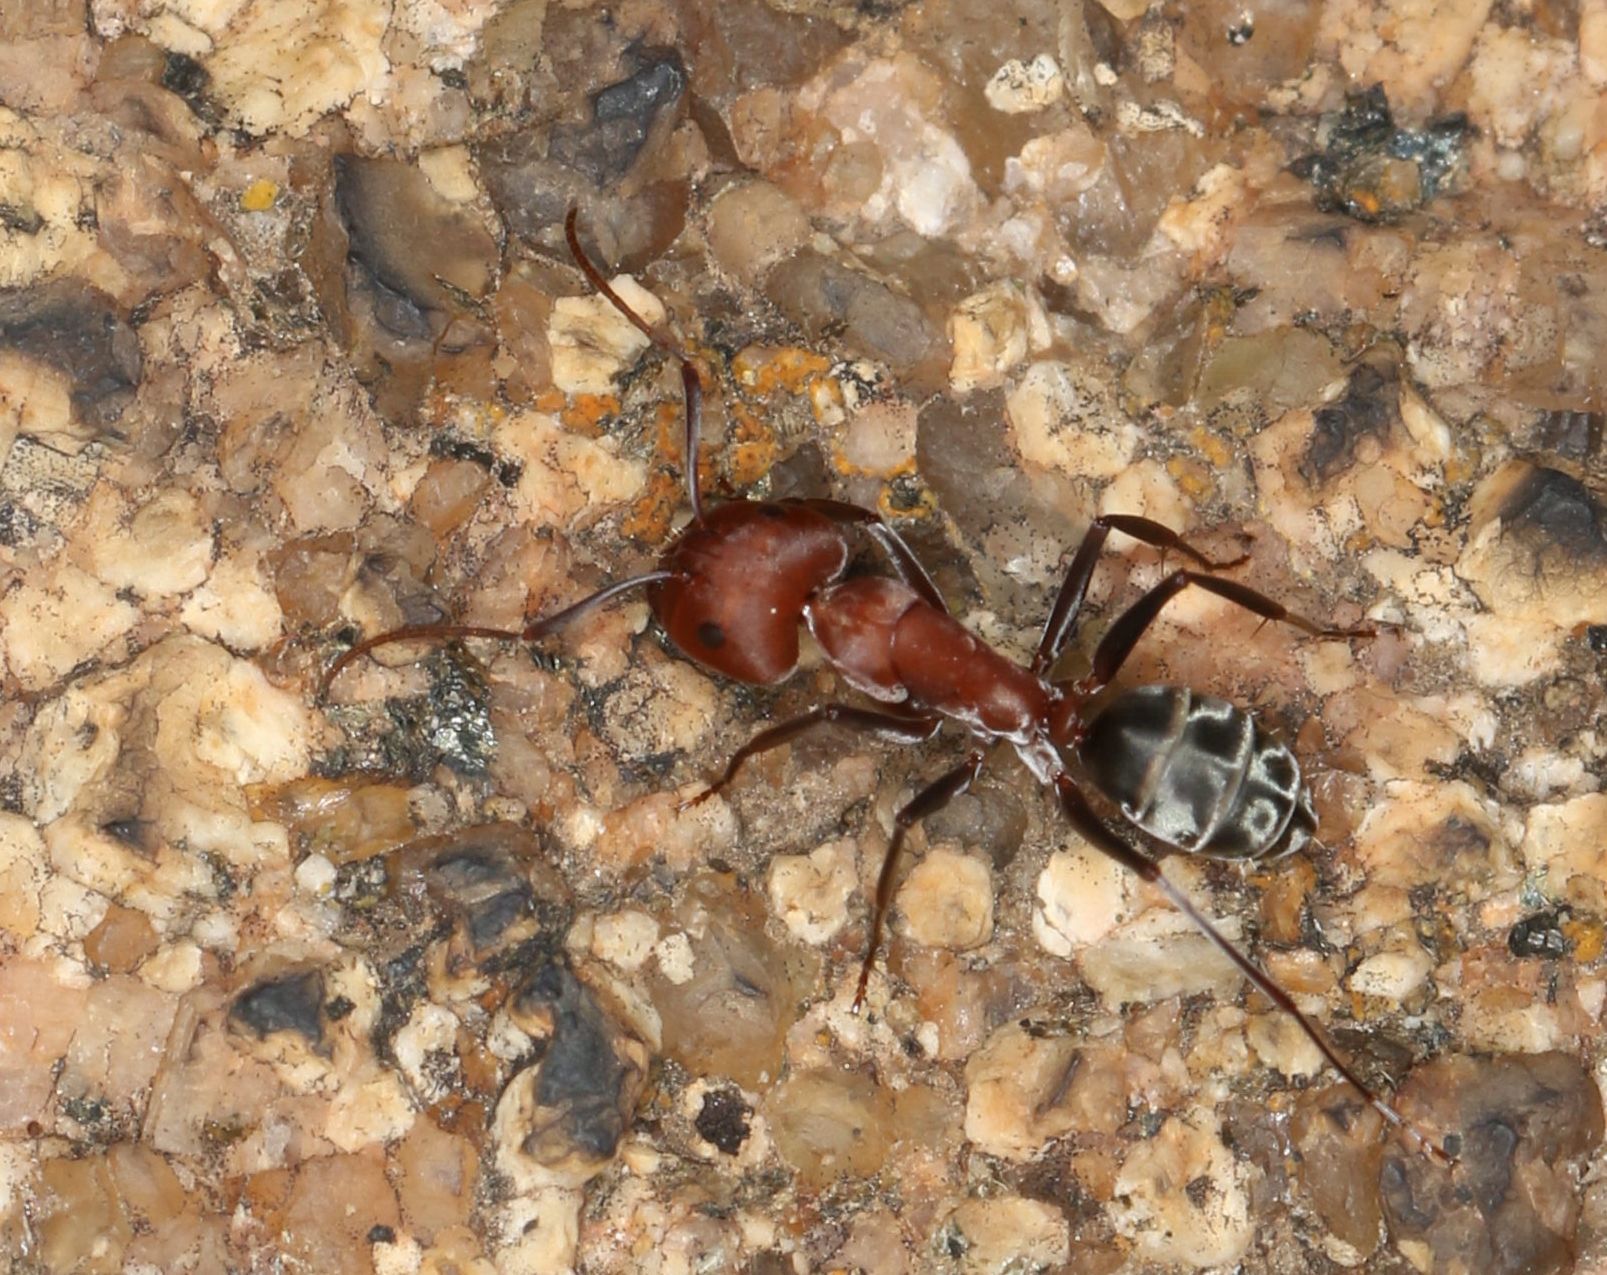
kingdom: Animalia
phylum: Arthropoda
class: Insecta
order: Hymenoptera
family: Formicidae
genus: Camponotus
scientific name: Camponotus vestitus
